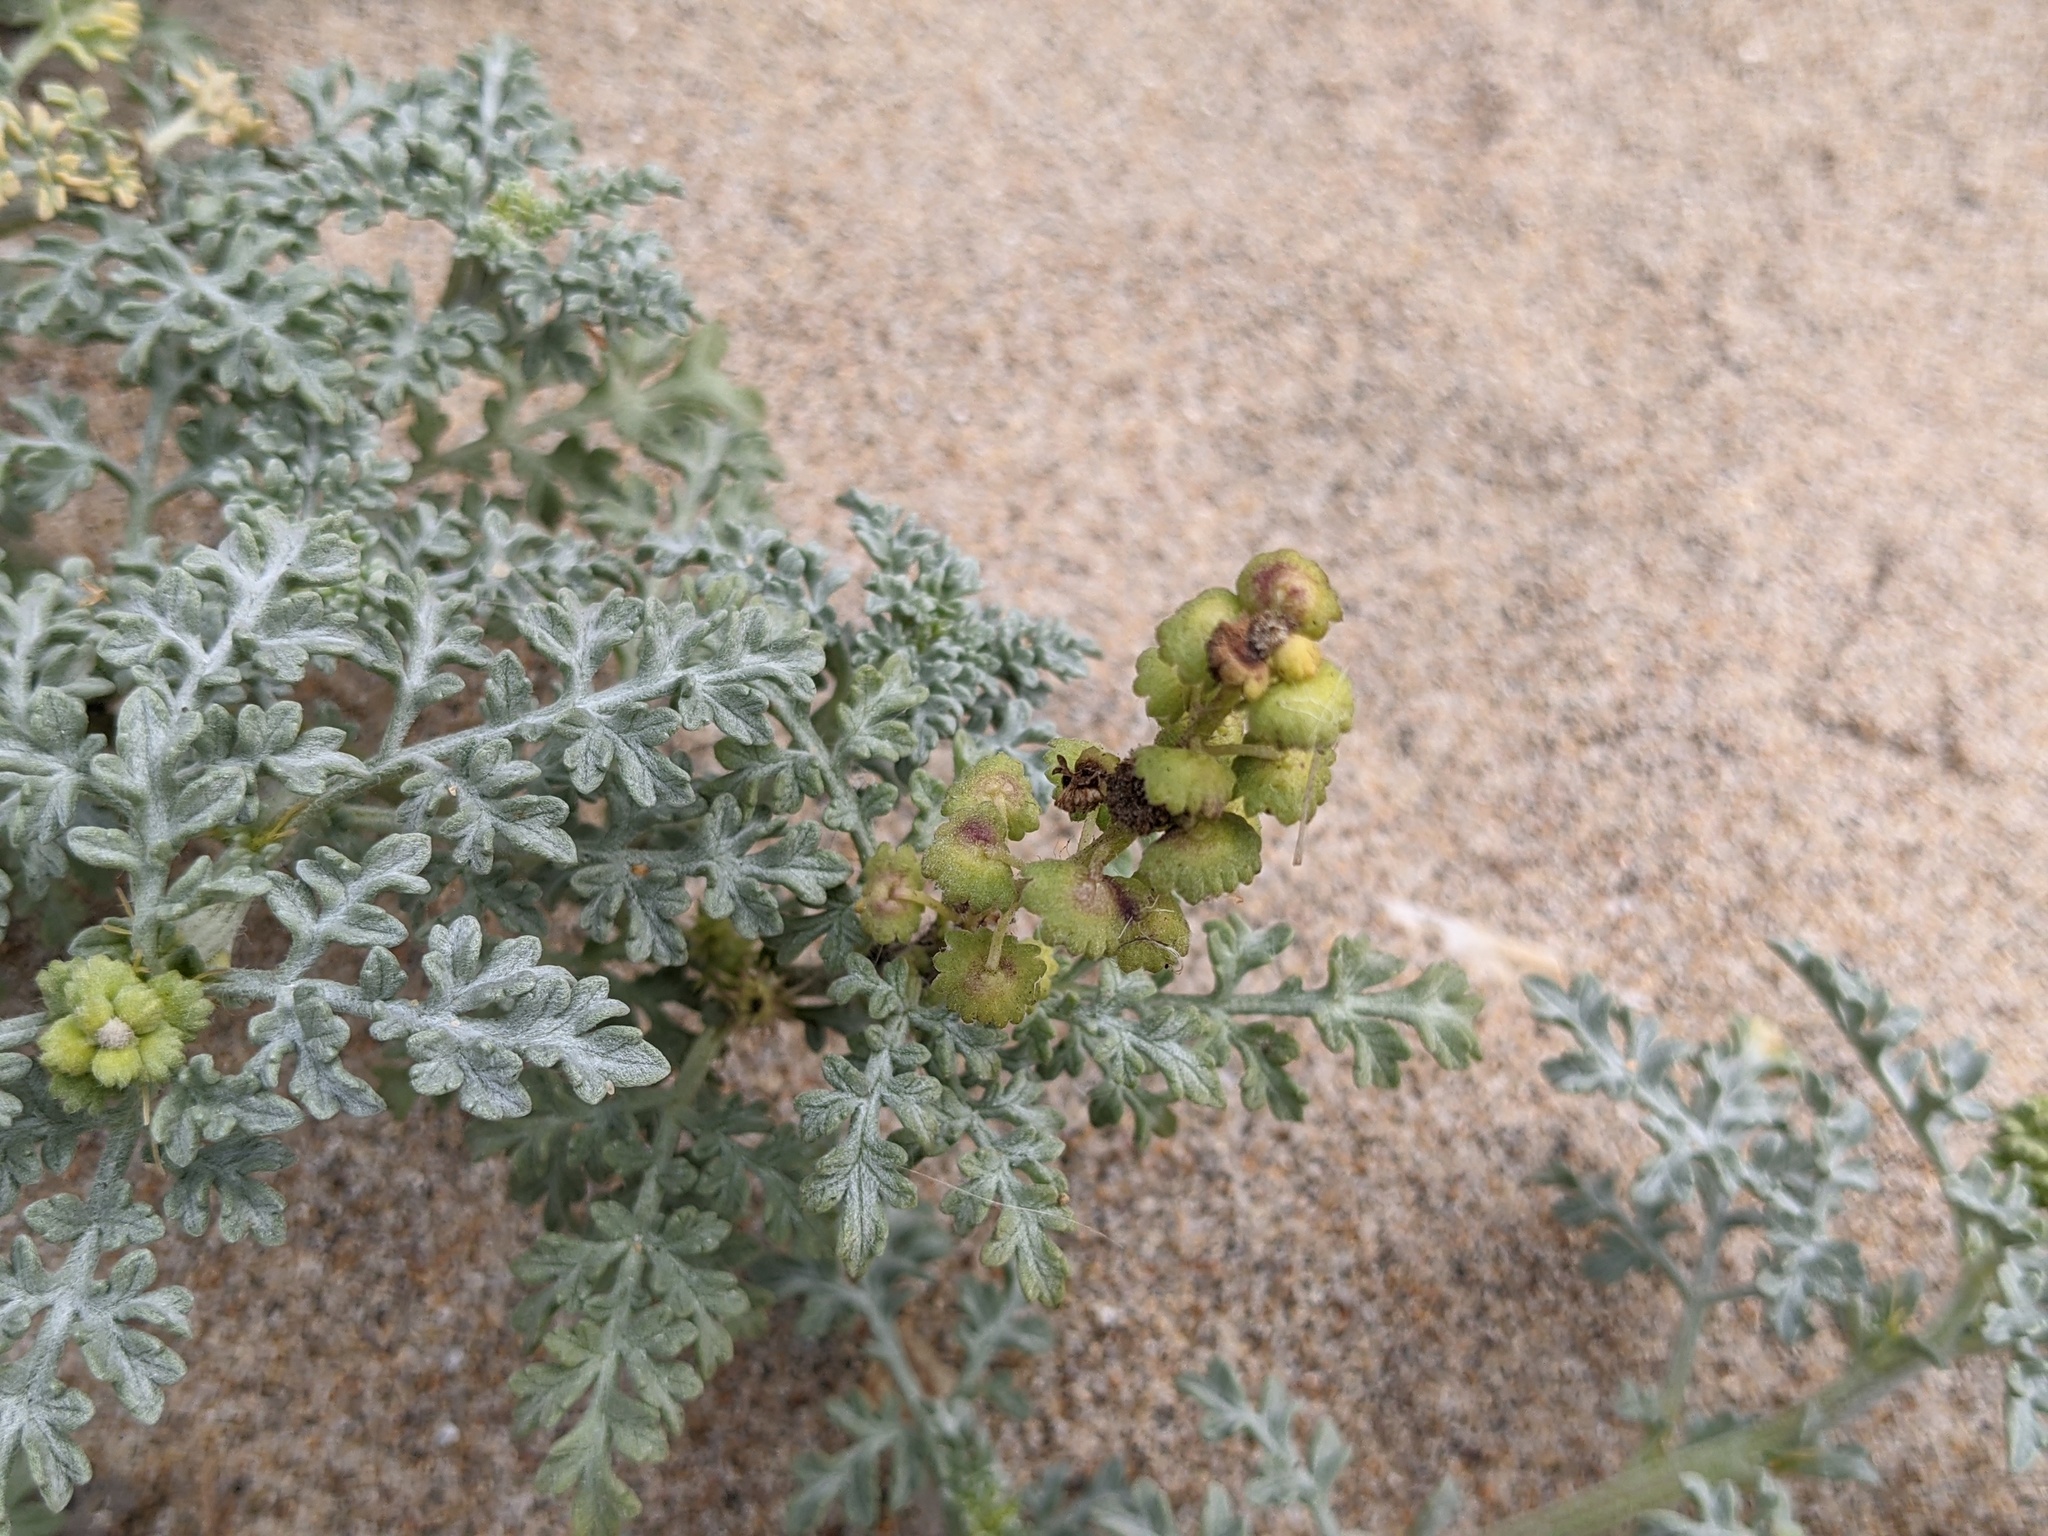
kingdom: Plantae
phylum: Tracheophyta
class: Magnoliopsida
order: Asterales
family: Asteraceae
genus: Ambrosia
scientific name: Ambrosia chamissonis
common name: Beachbur
